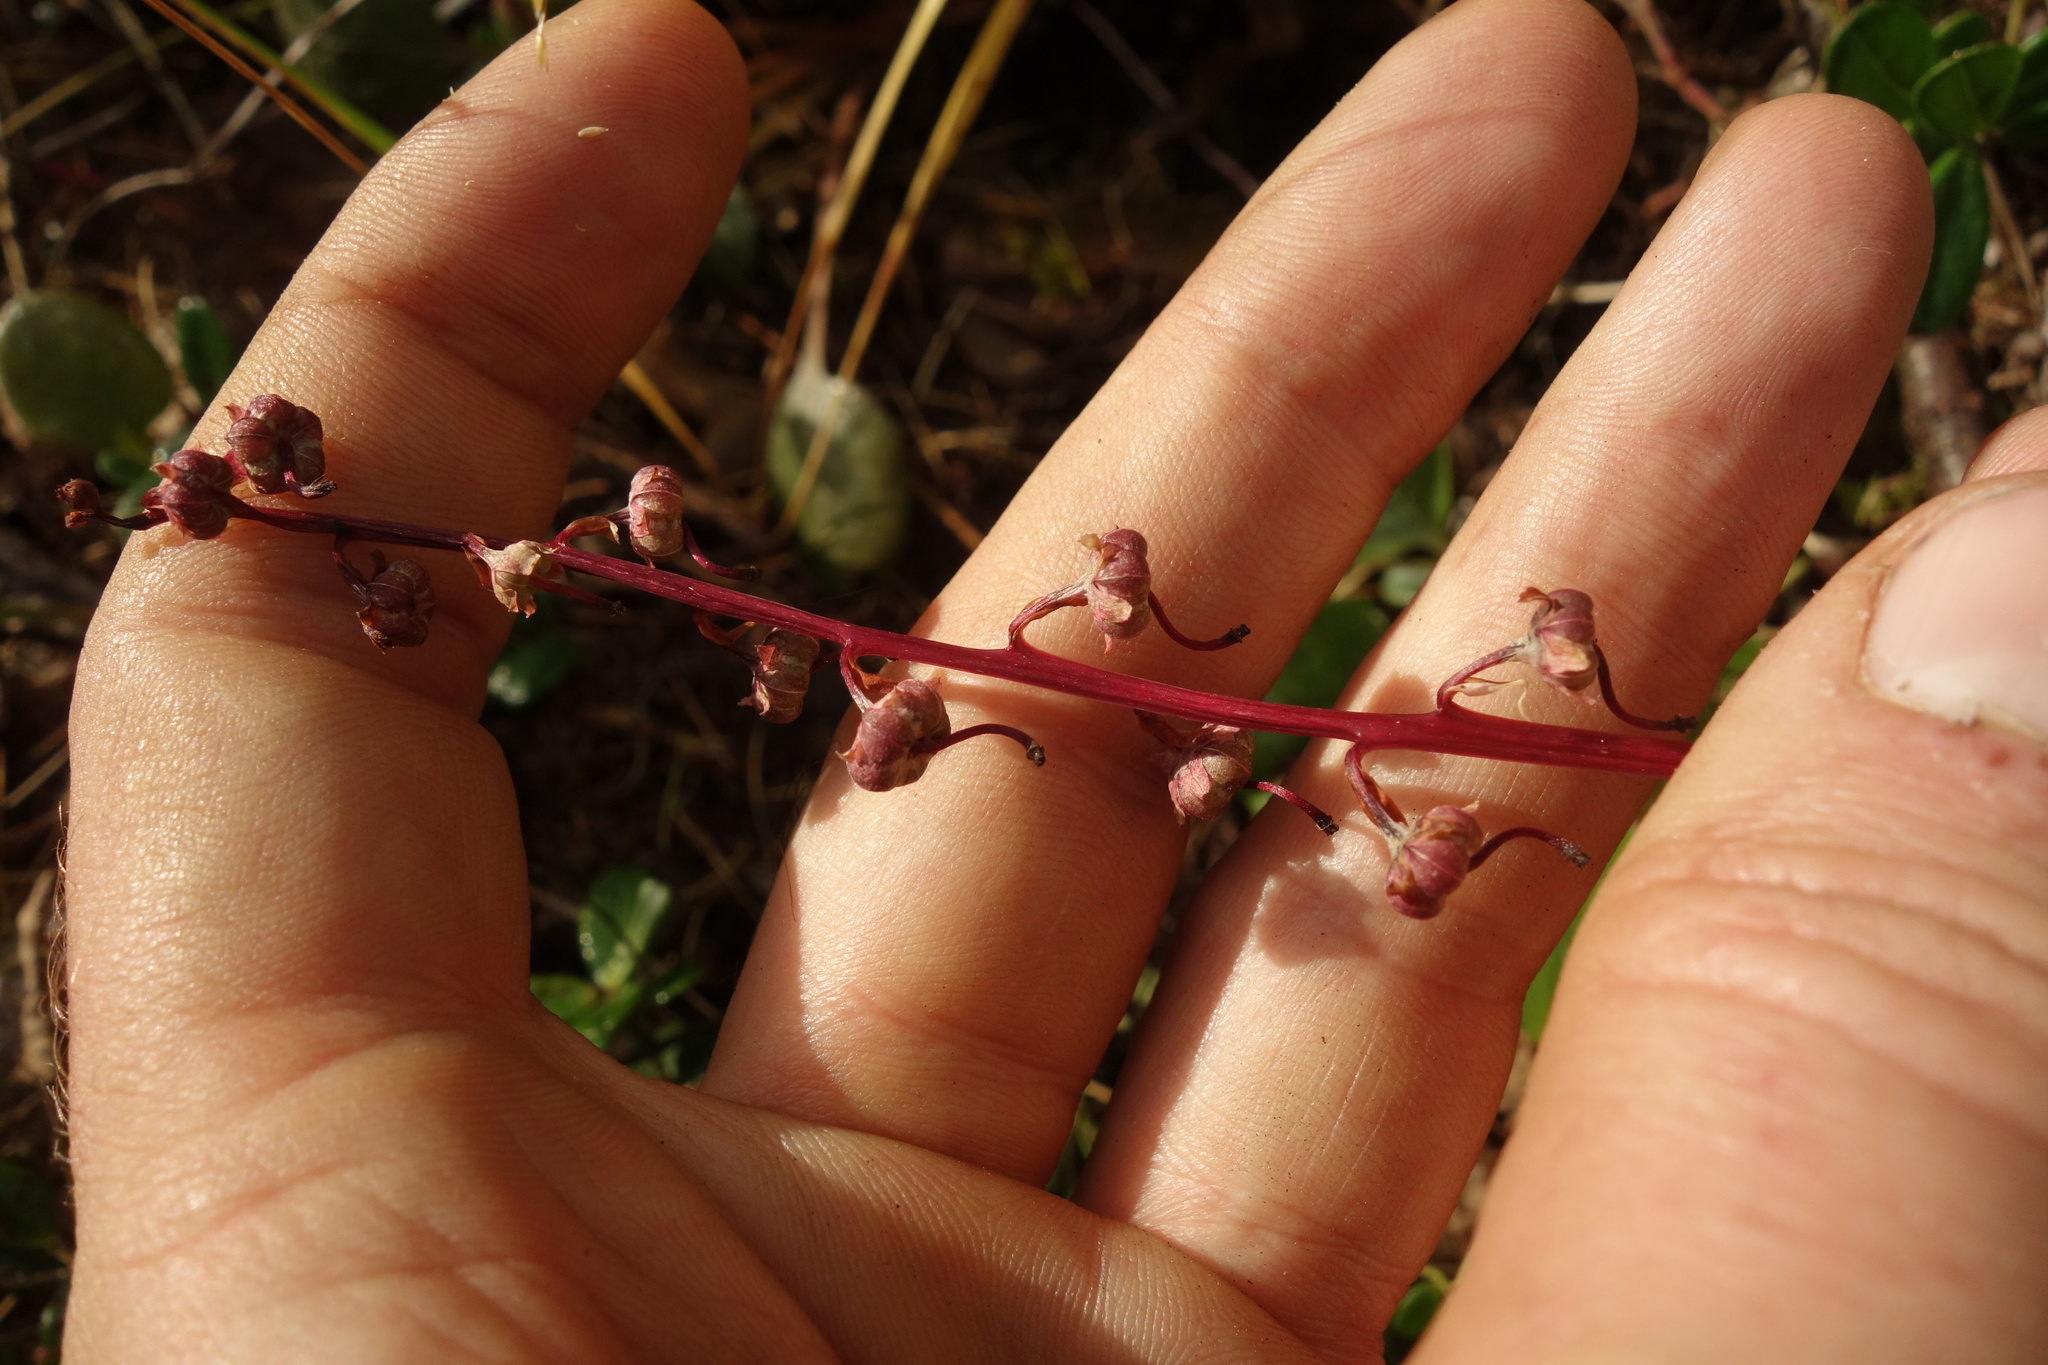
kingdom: Plantae
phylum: Tracheophyta
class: Magnoliopsida
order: Ericales
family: Ericaceae
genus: Pyrola
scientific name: Pyrola asarifolia
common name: Bog wintergreen
